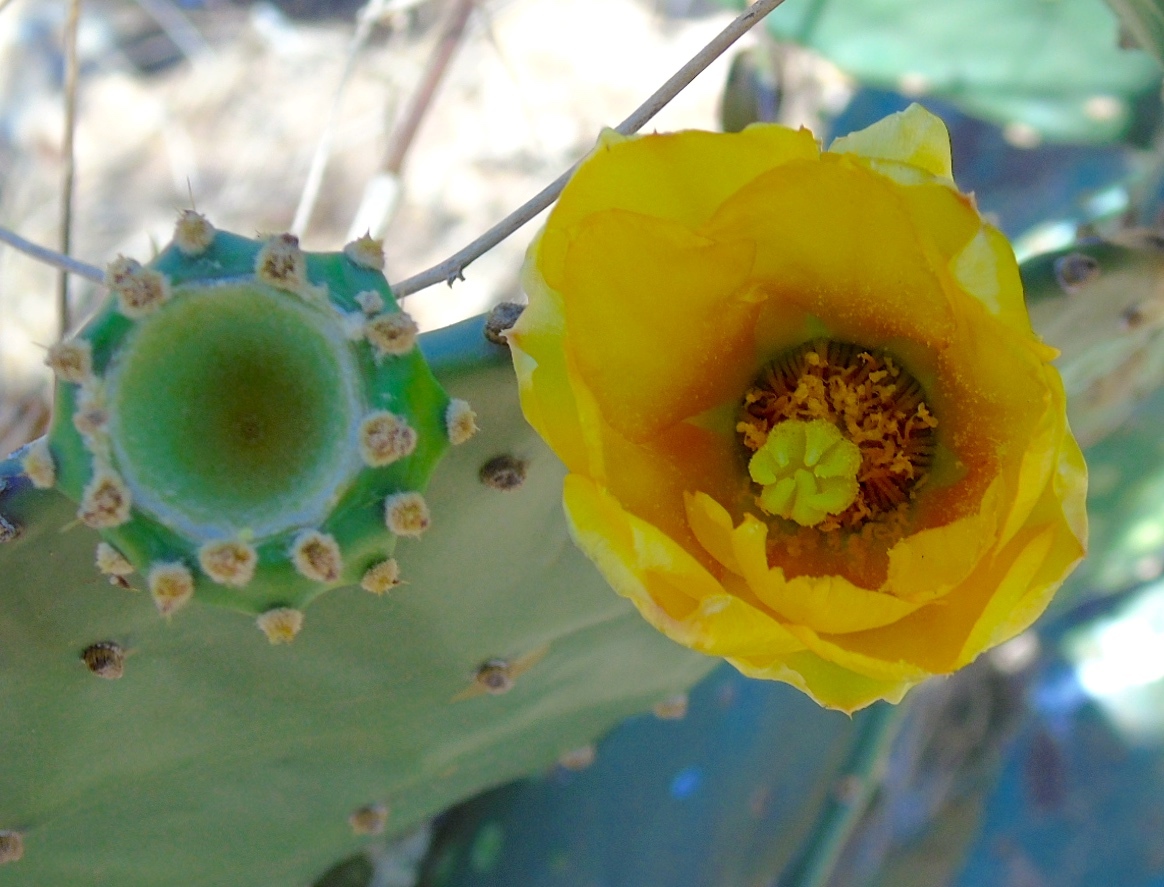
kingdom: Plantae
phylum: Tracheophyta
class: Magnoliopsida
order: Caryophyllales
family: Cactaceae
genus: Opuntia
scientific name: Opuntia decumbens
